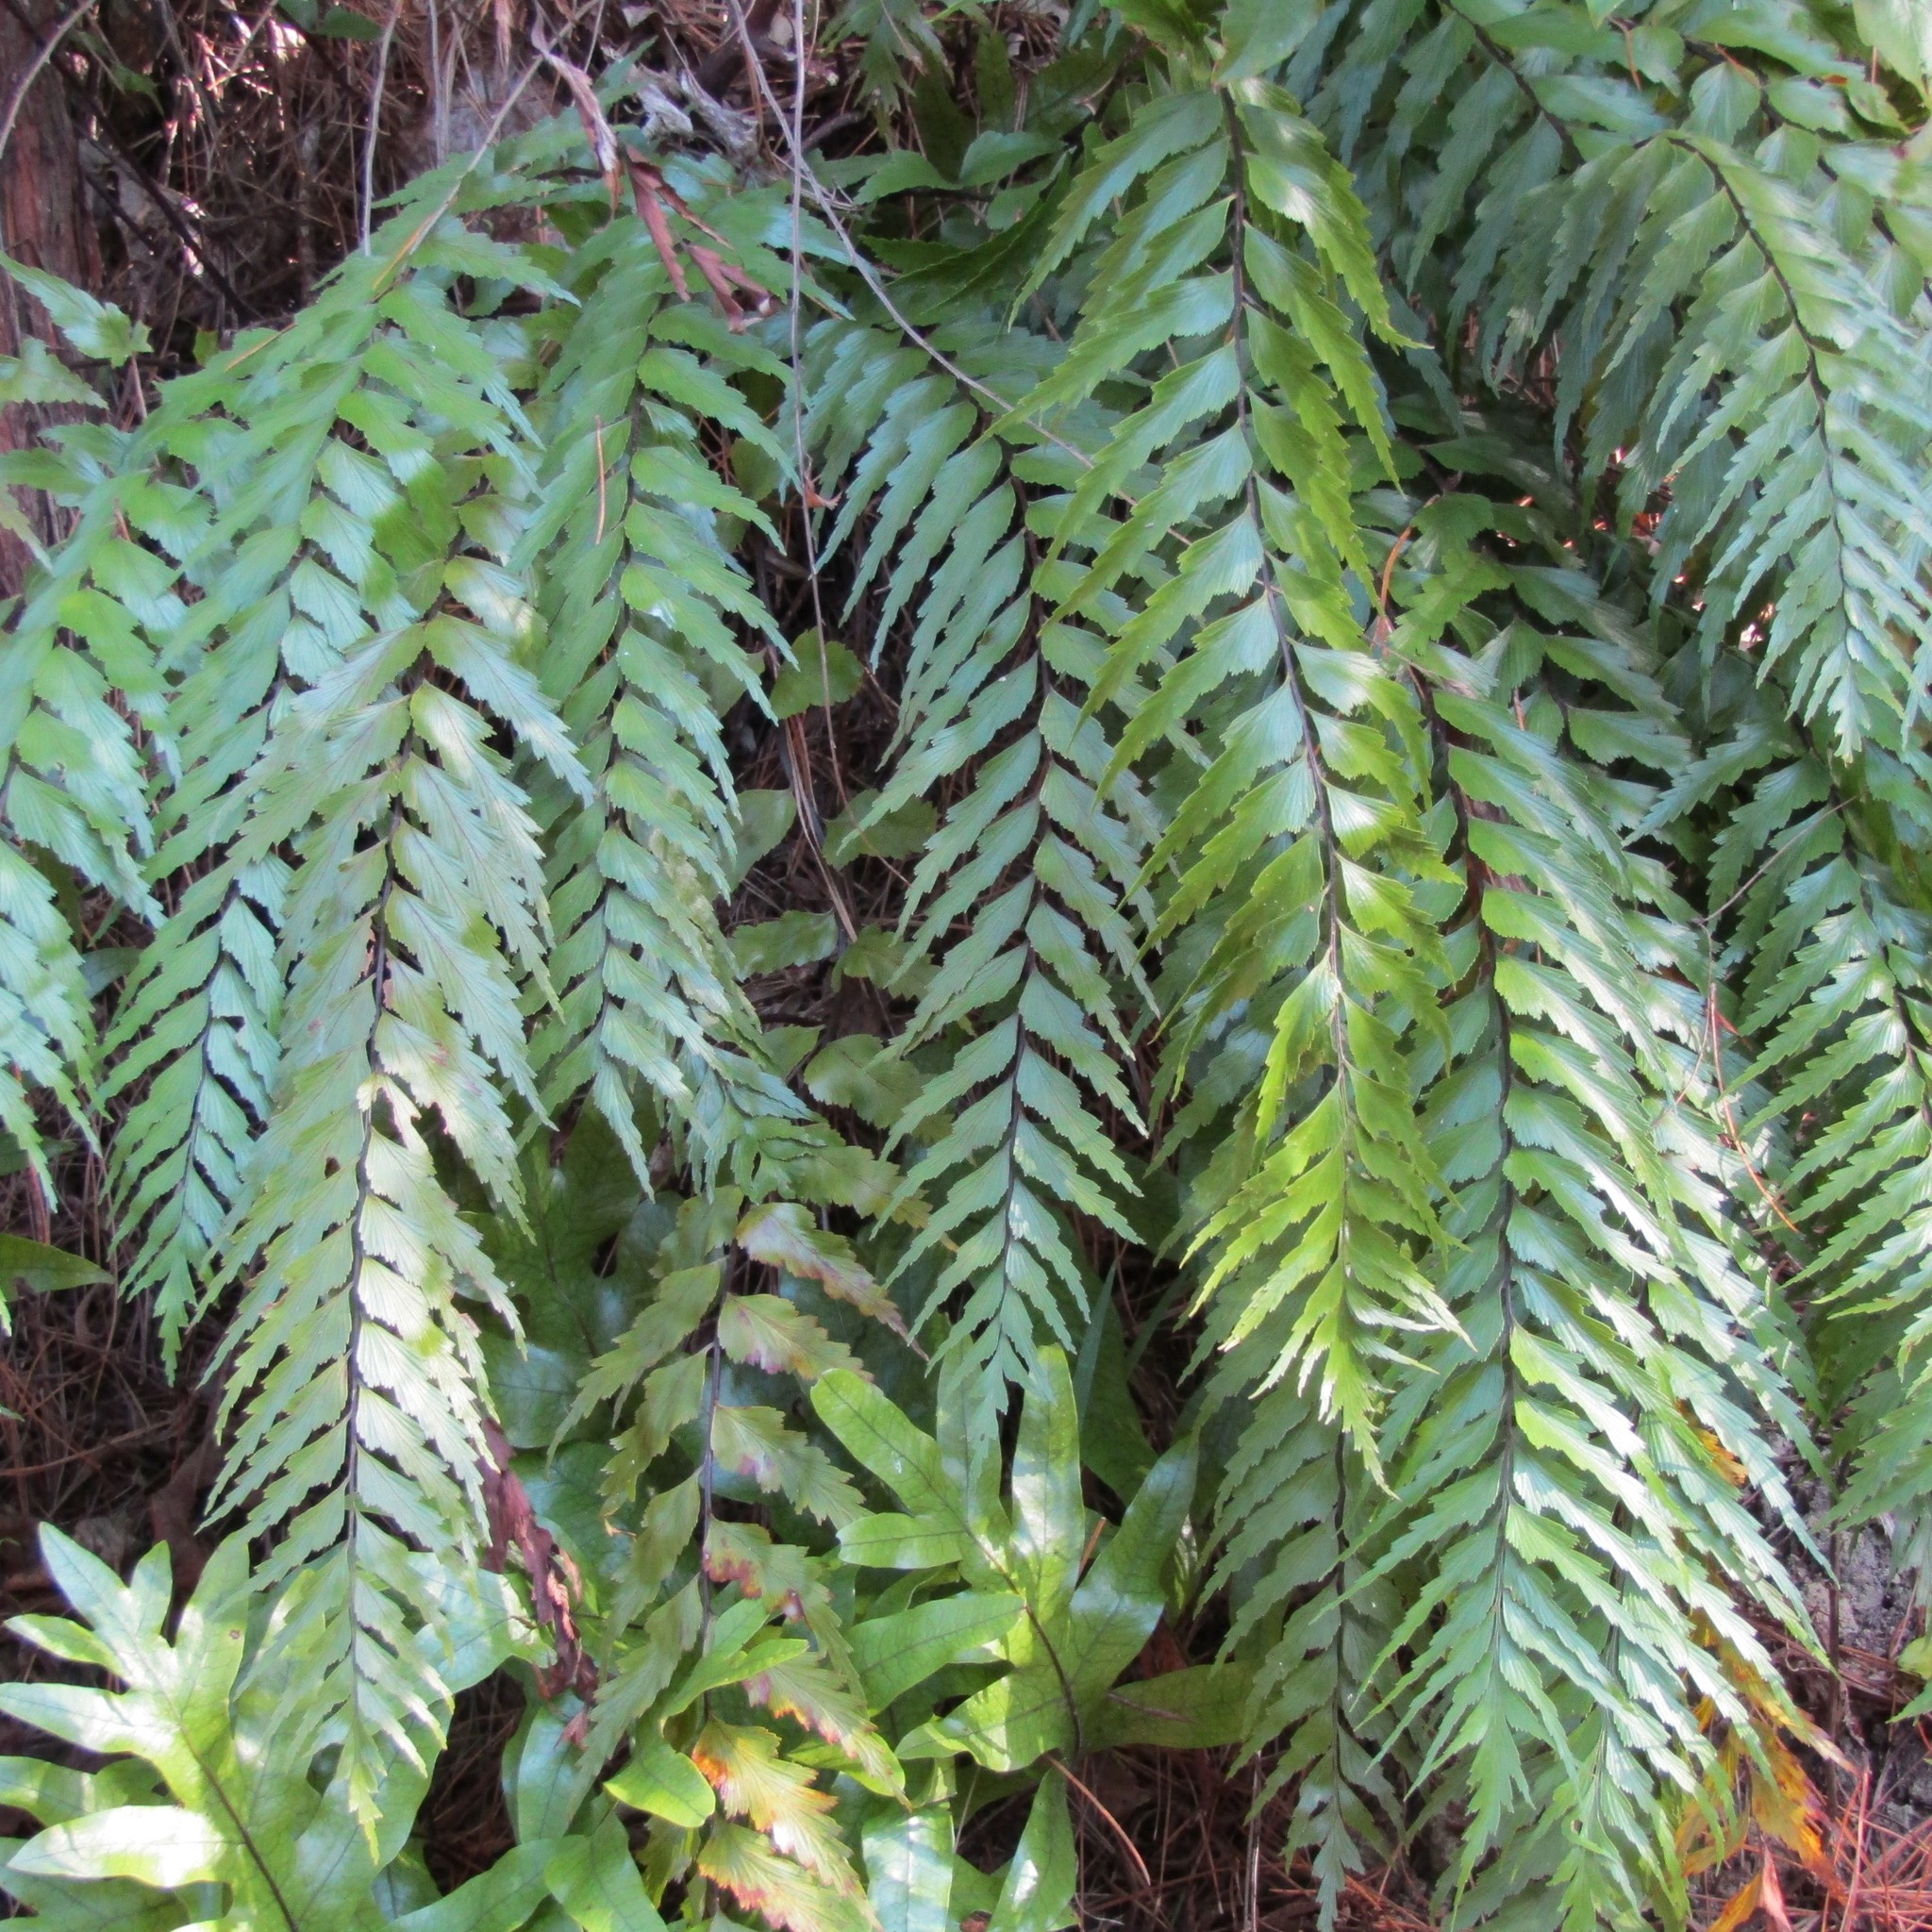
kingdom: Plantae
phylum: Tracheophyta
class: Polypodiopsida
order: Polypodiales
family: Aspleniaceae
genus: Asplenium
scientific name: Asplenium polyodon
